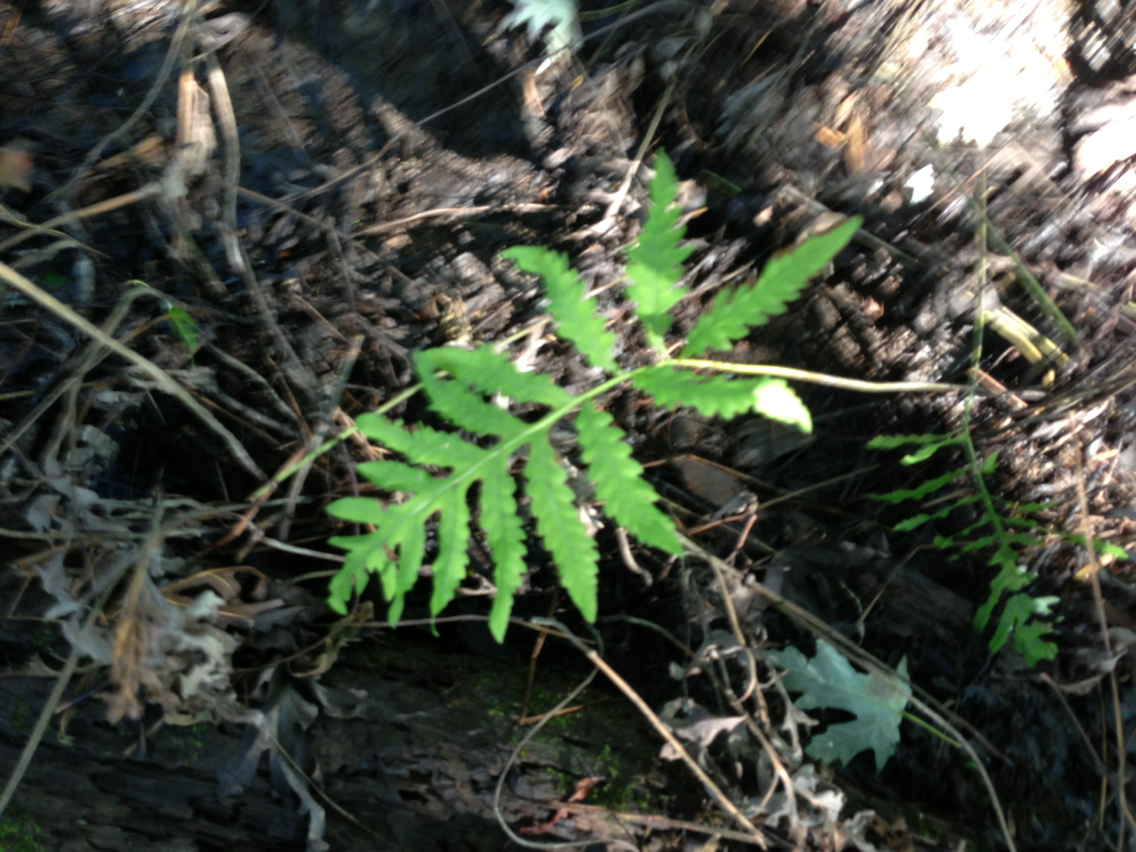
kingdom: Plantae
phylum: Tracheophyta
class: Polypodiopsida
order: Polypodiales
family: Onocleaceae
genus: Onoclea
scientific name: Onoclea sensibilis
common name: Sensitive fern
